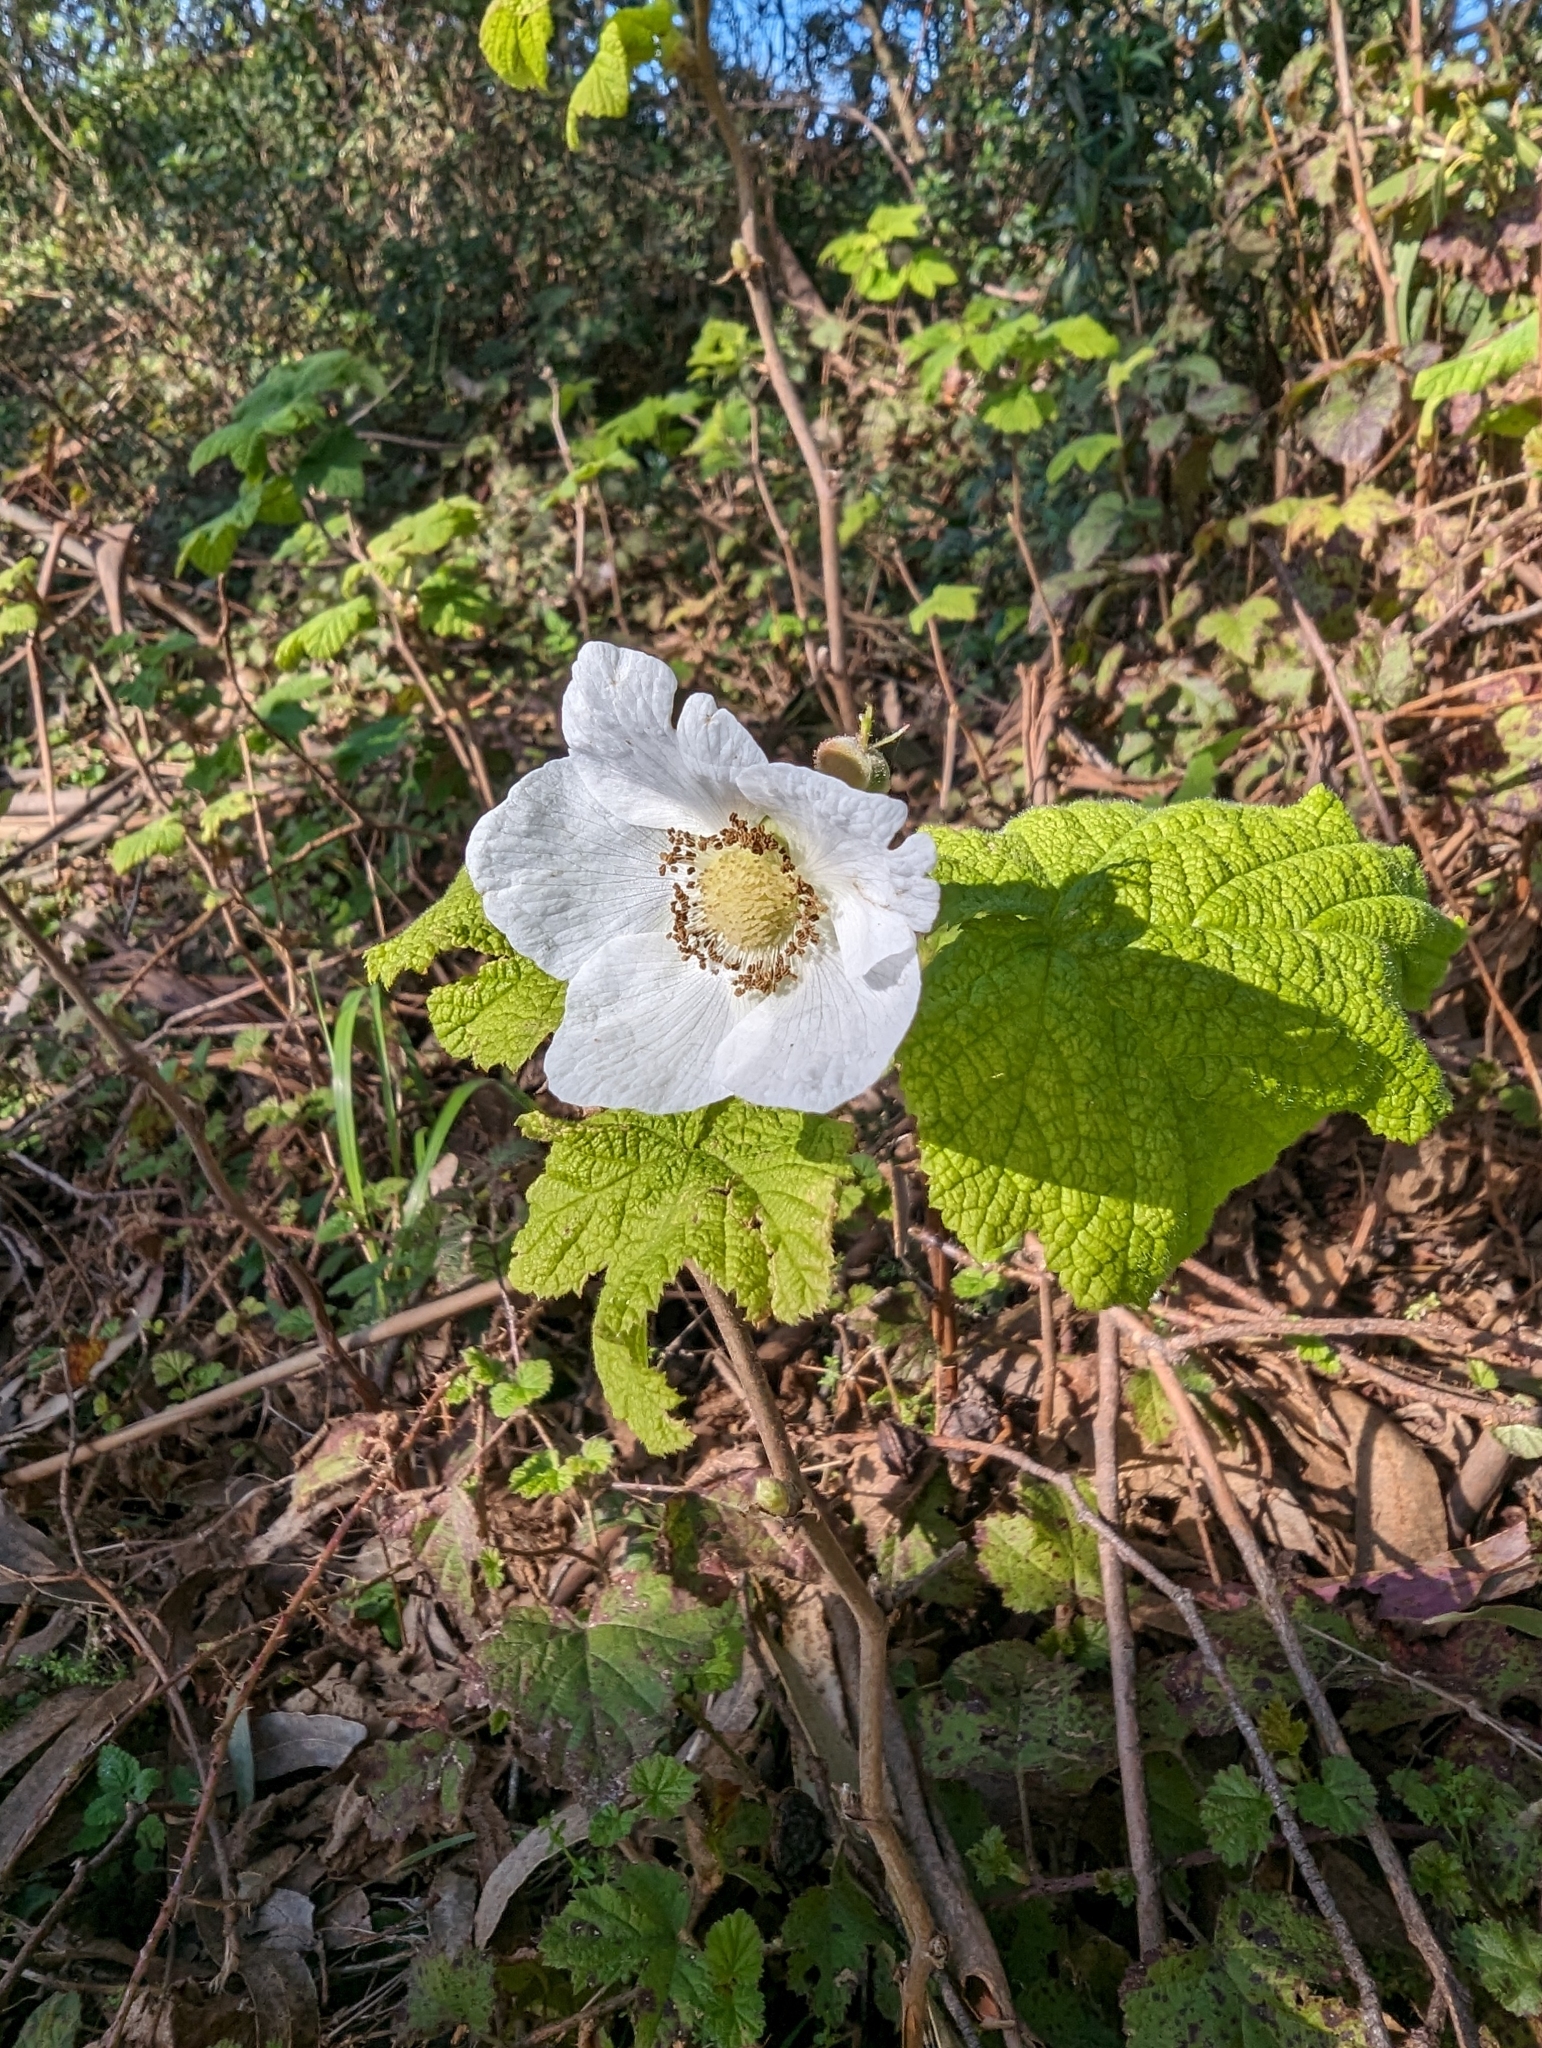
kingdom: Plantae
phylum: Tracheophyta
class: Magnoliopsida
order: Rosales
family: Rosaceae
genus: Rubus
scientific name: Rubus parviflorus
